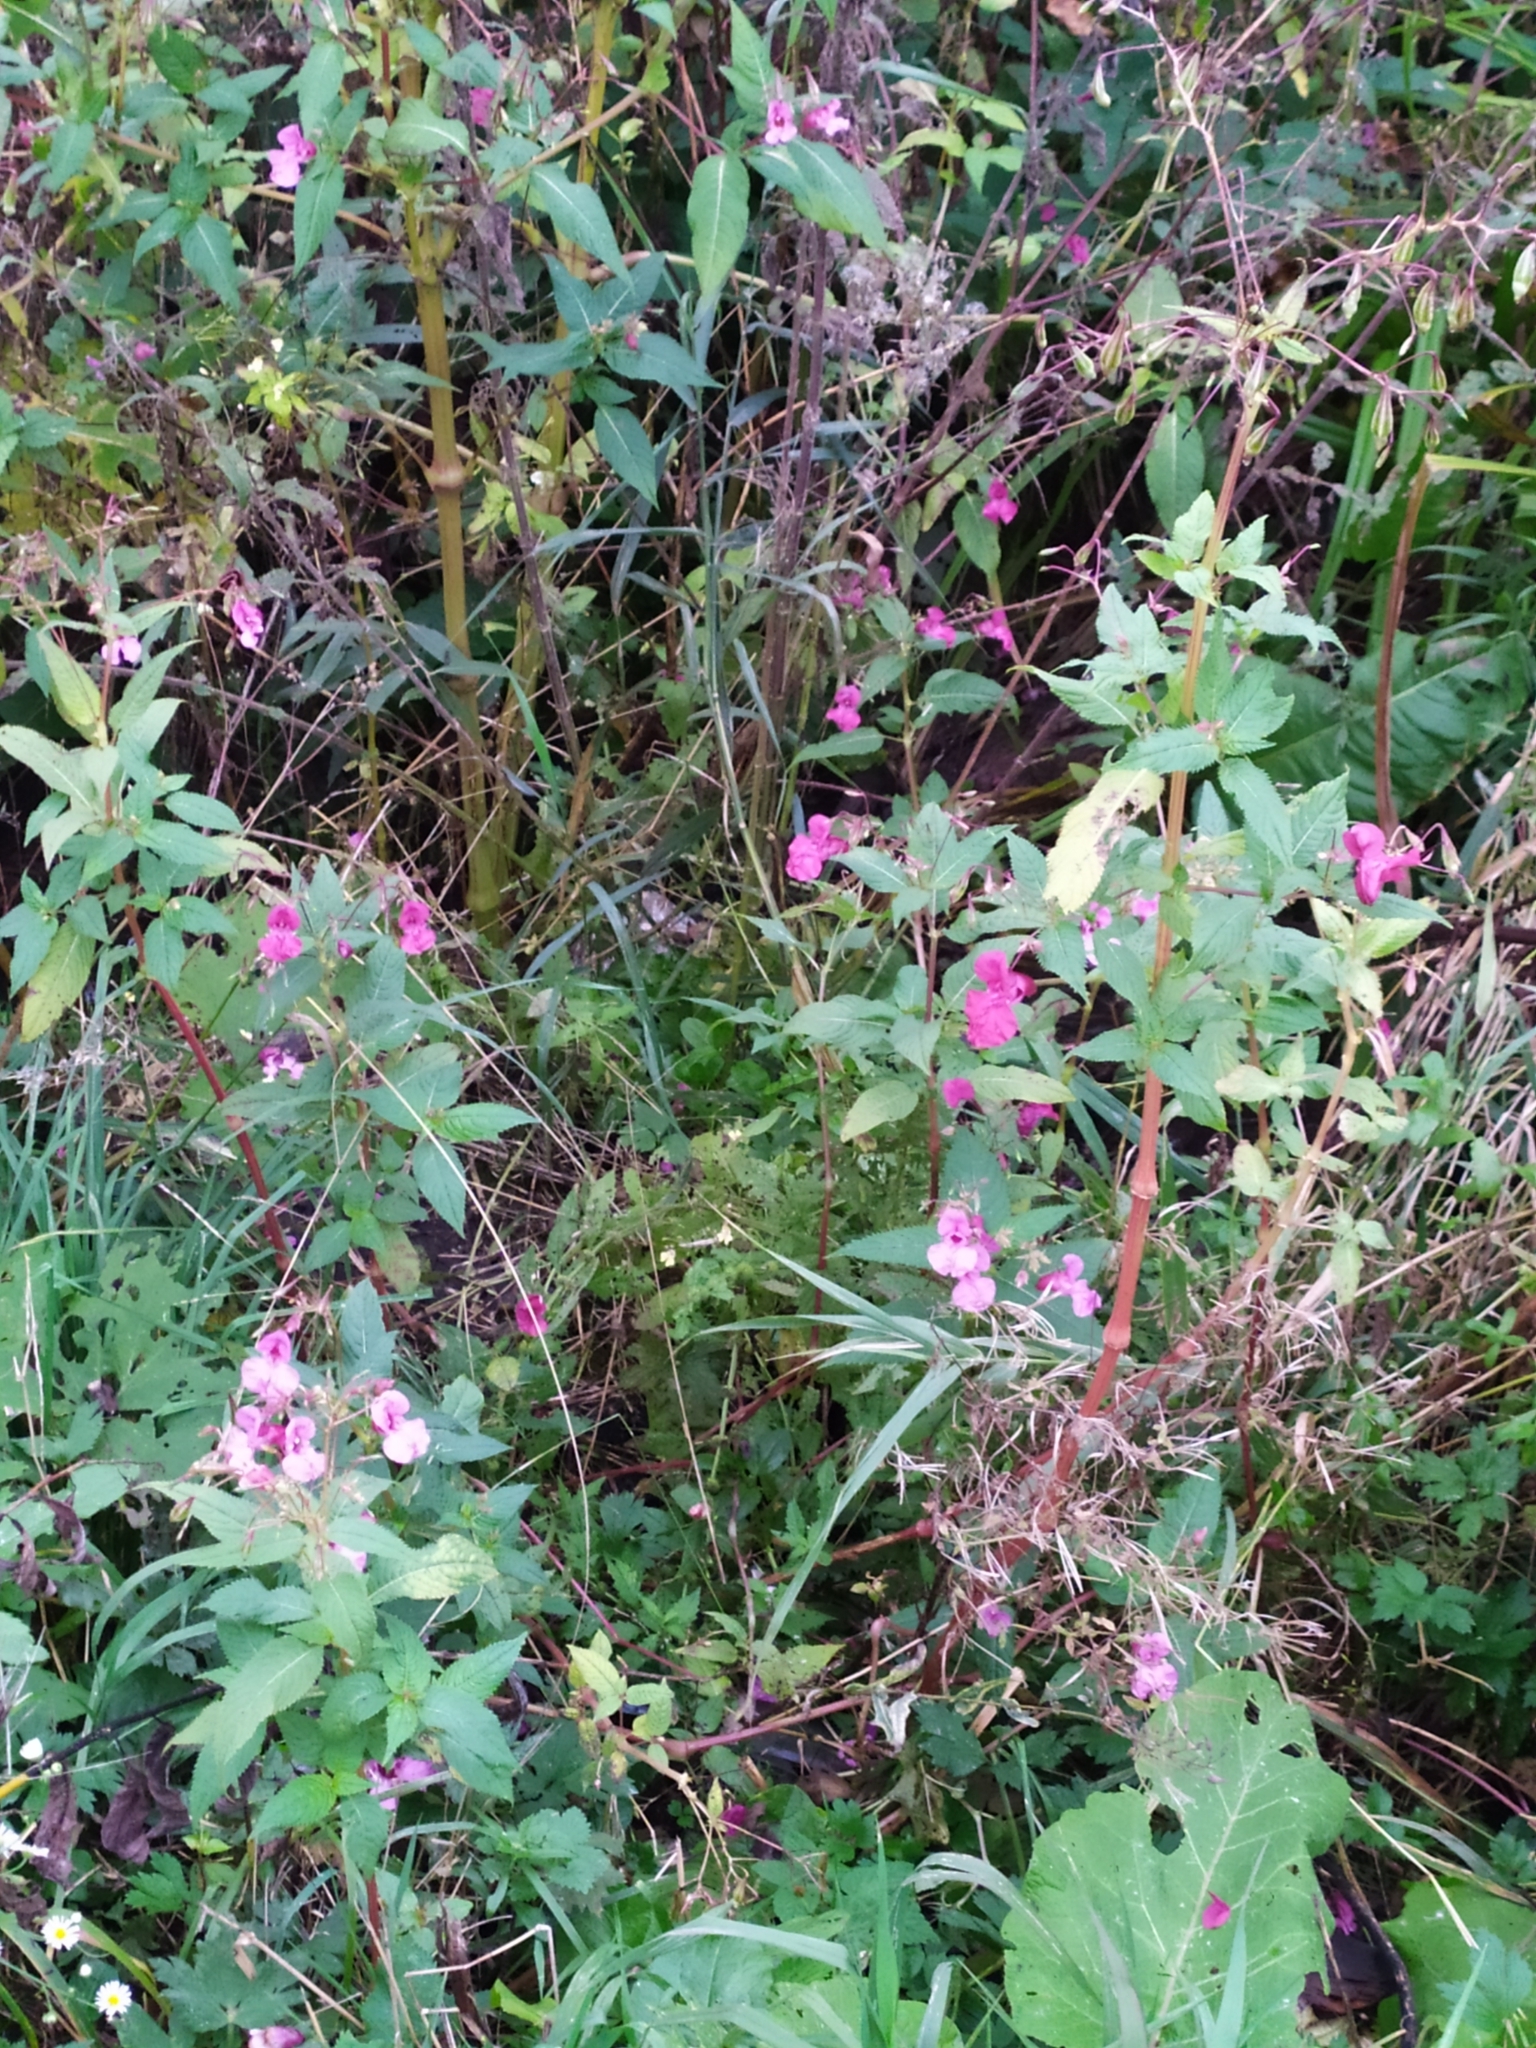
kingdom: Plantae
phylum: Tracheophyta
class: Magnoliopsida
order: Ericales
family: Balsaminaceae
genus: Impatiens
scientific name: Impatiens glandulifera
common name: Himalayan balsam
